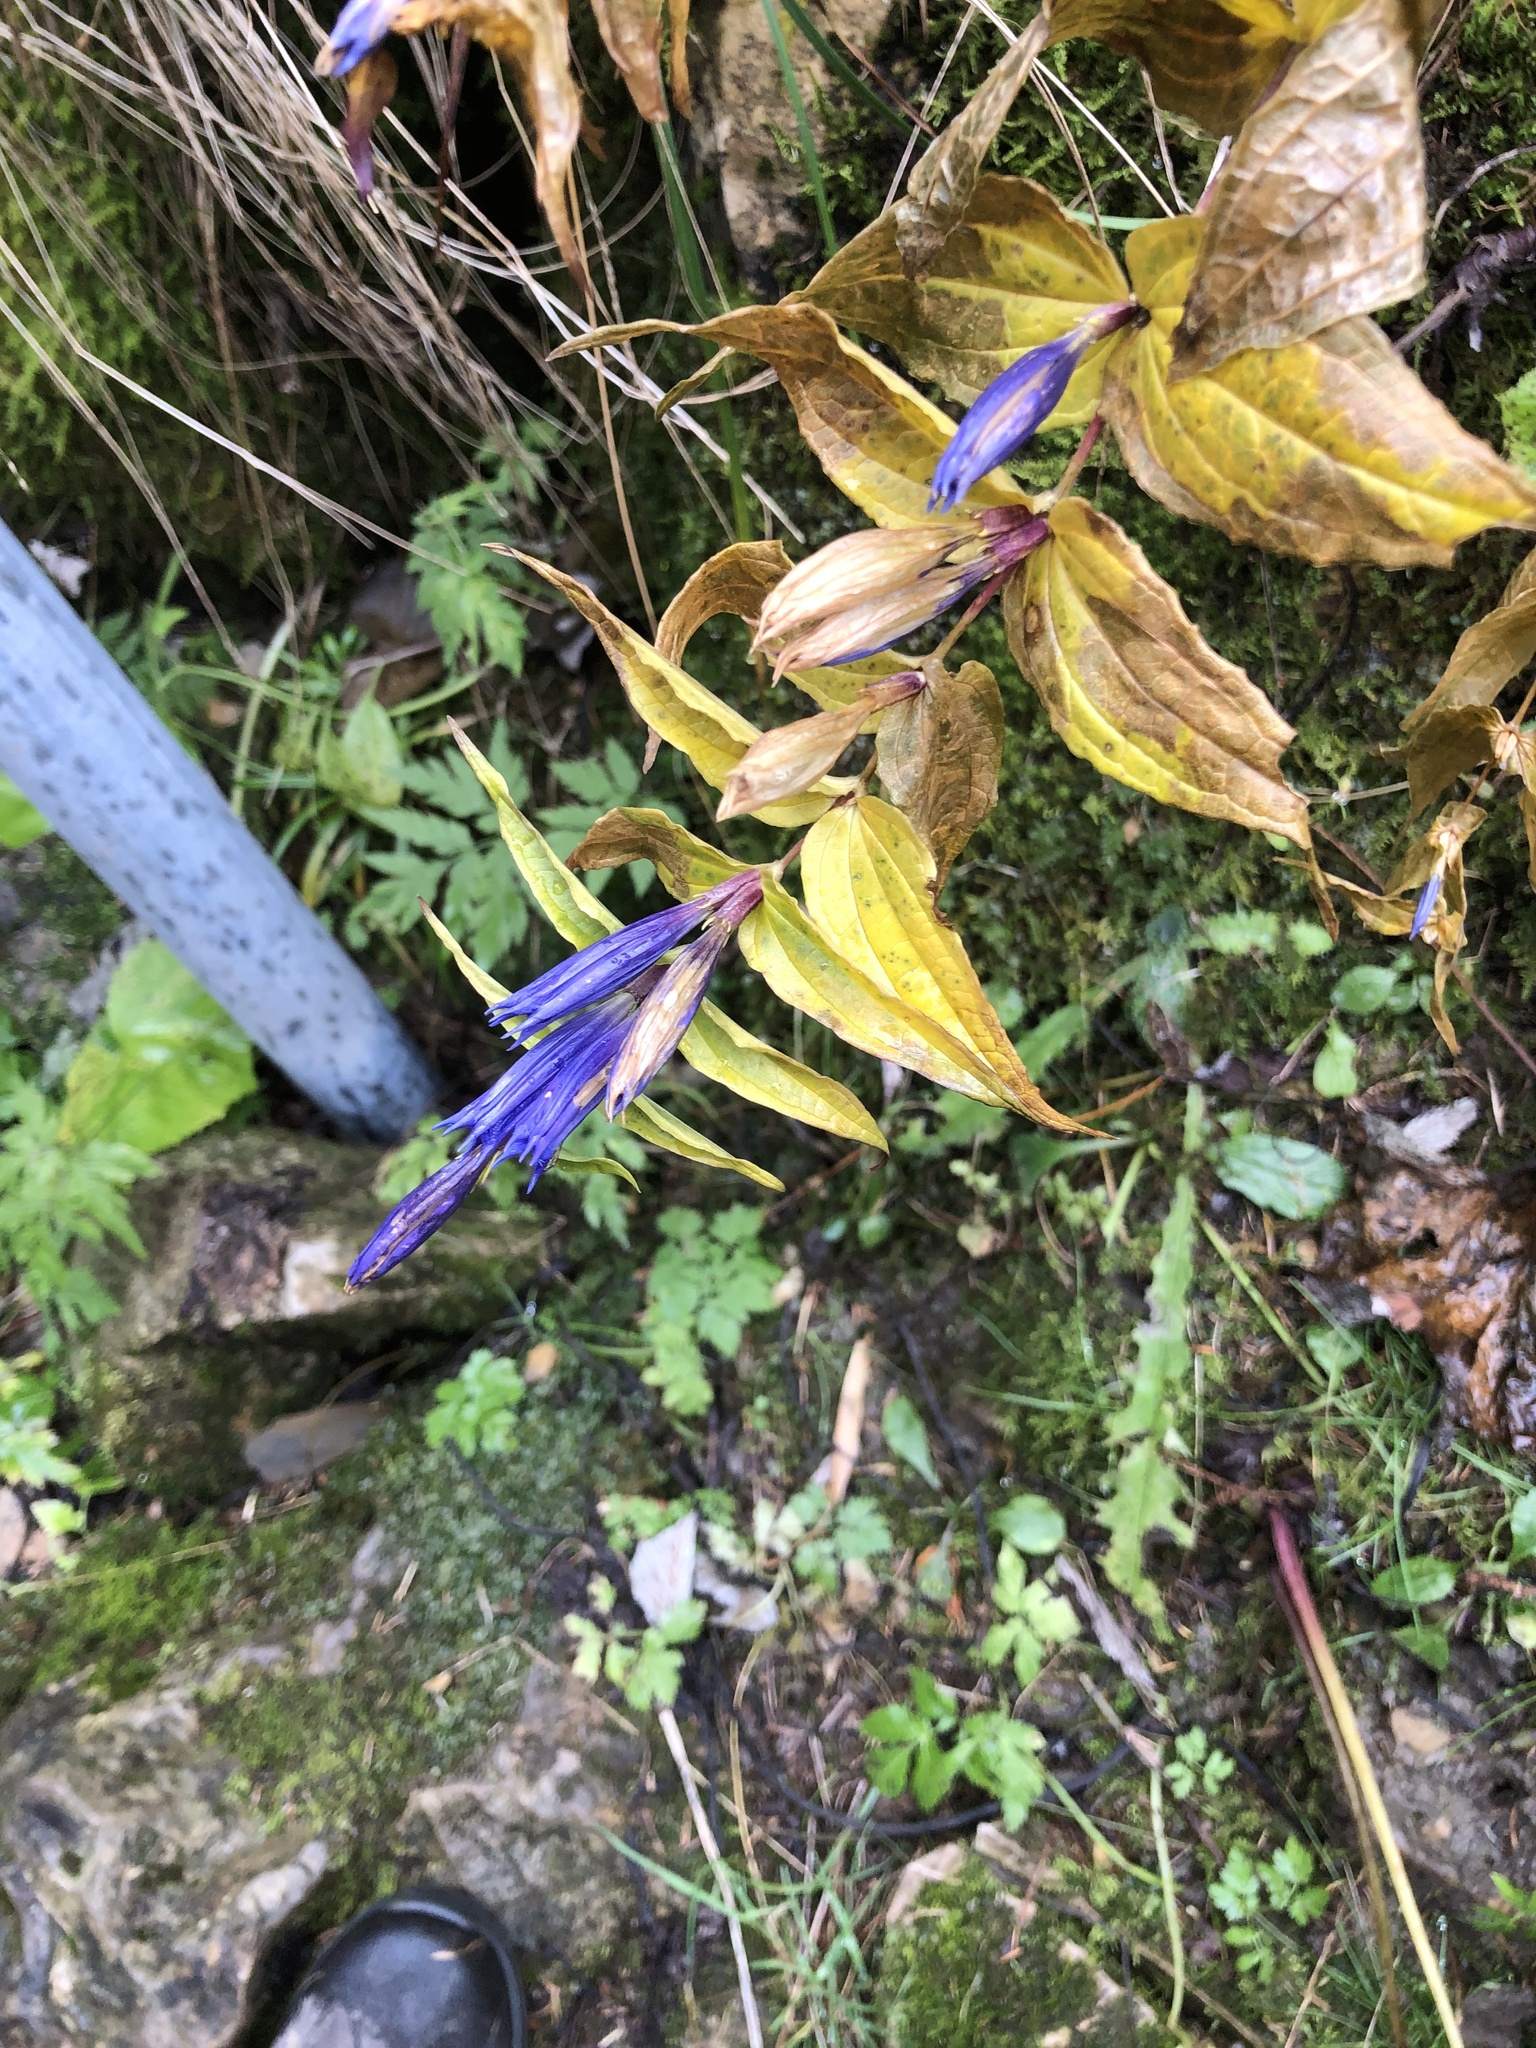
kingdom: Plantae
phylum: Tracheophyta
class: Magnoliopsida
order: Gentianales
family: Gentianaceae
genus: Gentiana
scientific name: Gentiana asclepiadea
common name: Willow gentian
